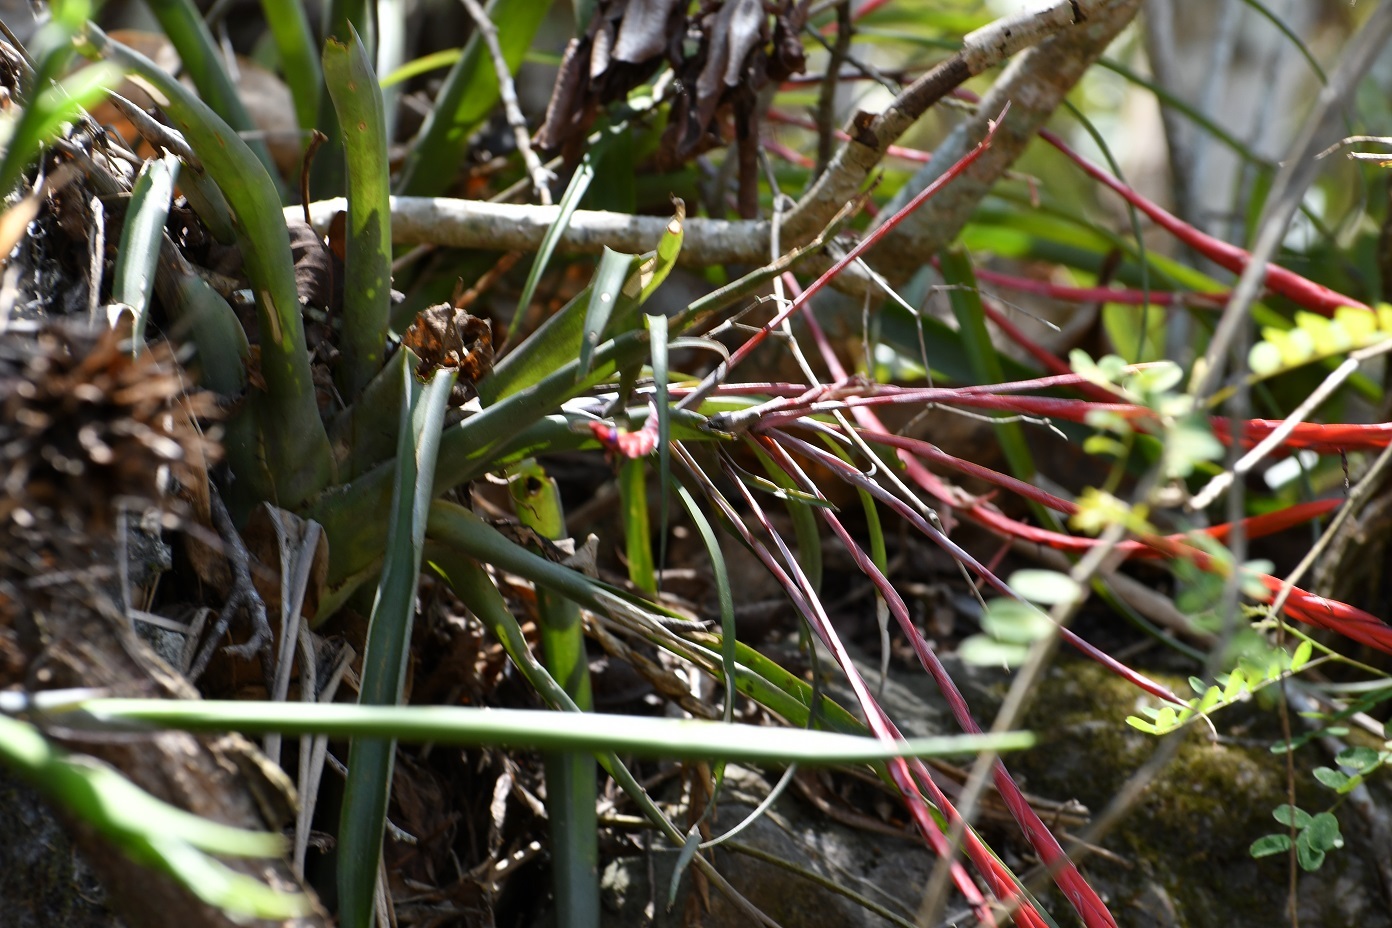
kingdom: Plantae
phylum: Tracheophyta
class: Liliopsida
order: Poales
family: Bromeliaceae
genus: Tillandsia
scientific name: Tillandsia flabellata
